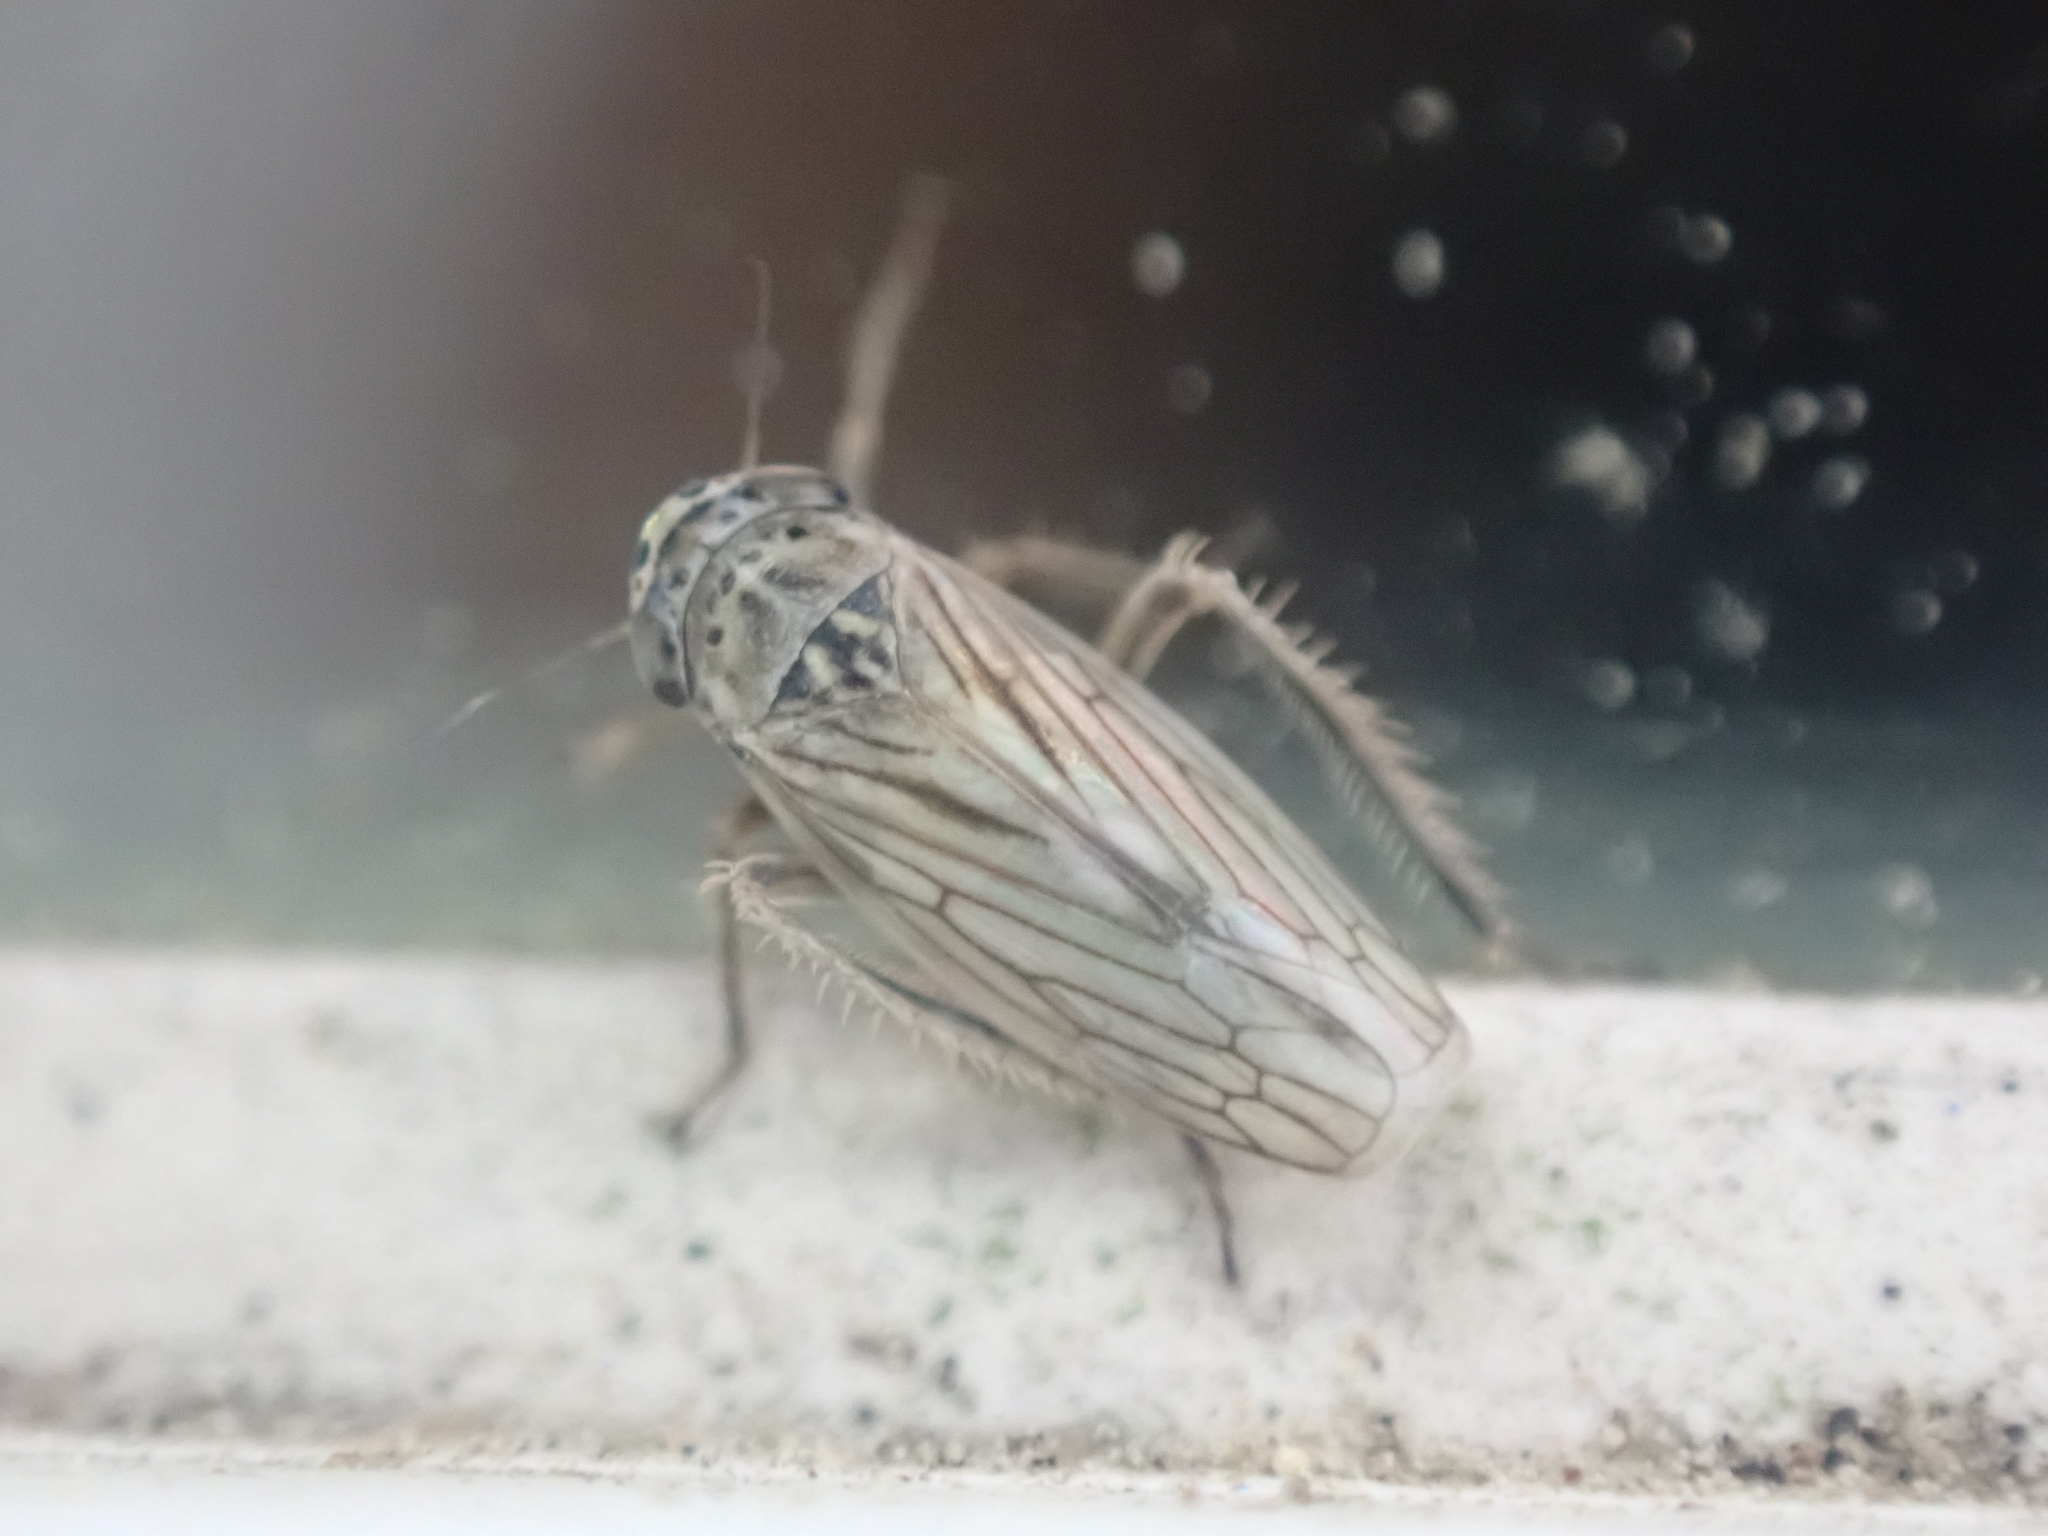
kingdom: Animalia
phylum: Arthropoda
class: Insecta
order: Hemiptera
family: Cicadellidae
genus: Exitianus
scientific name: Exitianus exitiosus
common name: Gray lawn leafhopper
